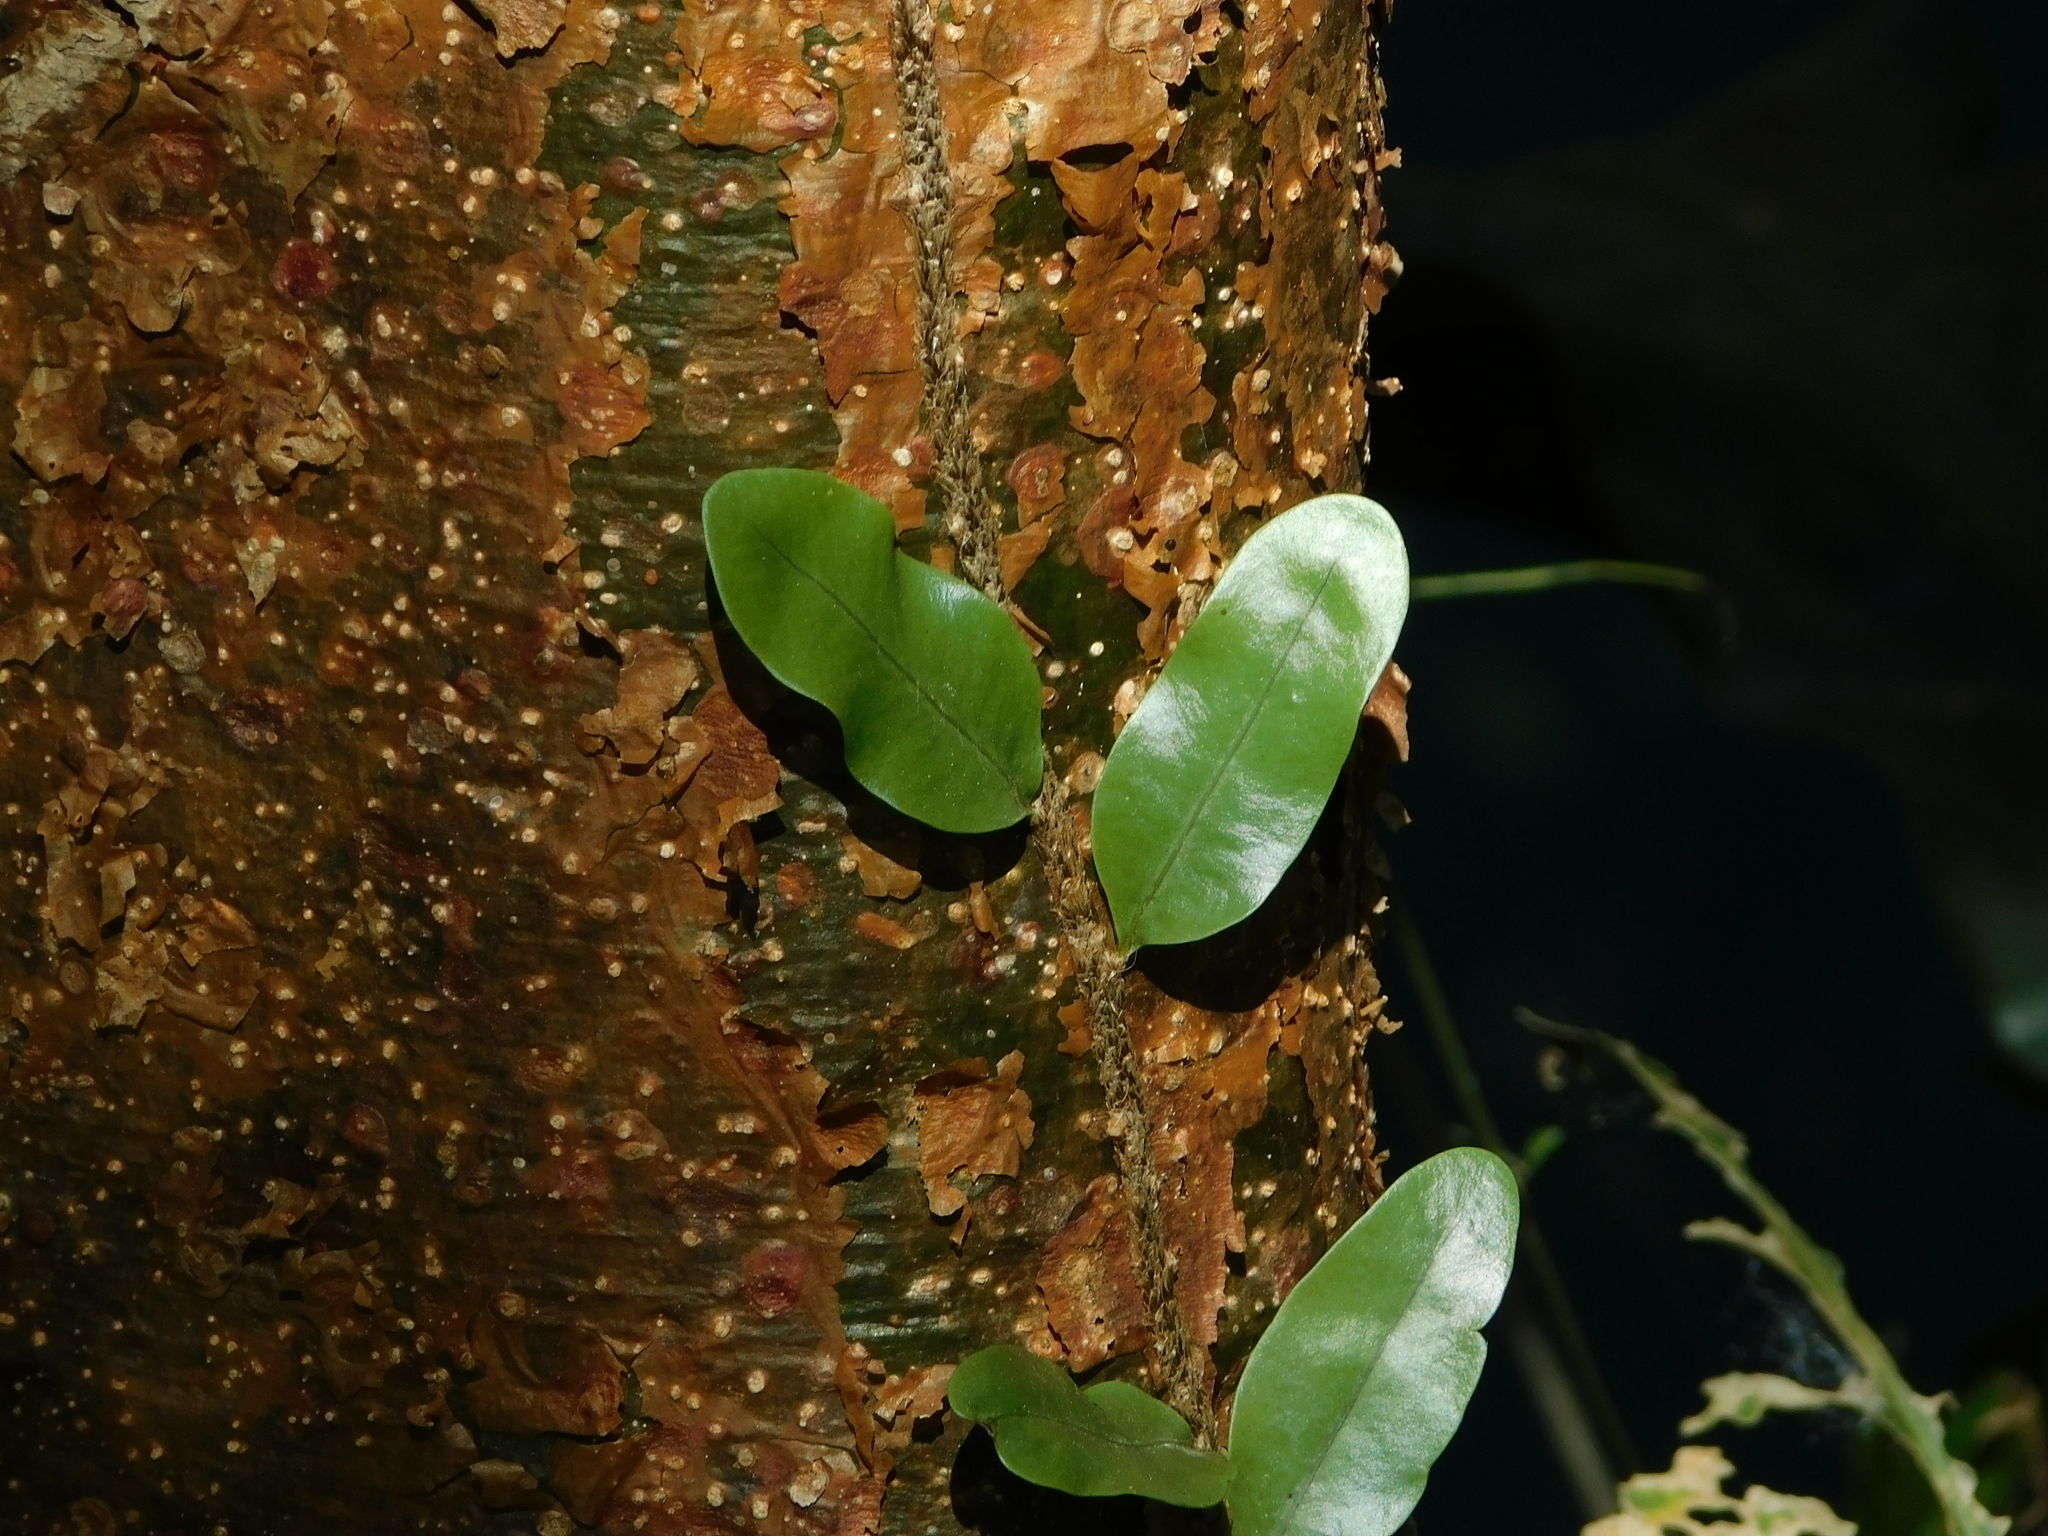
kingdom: Plantae
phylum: Tracheophyta
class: Polypodiopsida
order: Polypodiales
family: Polypodiaceae
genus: Microgramma
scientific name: Microgramma nitida
